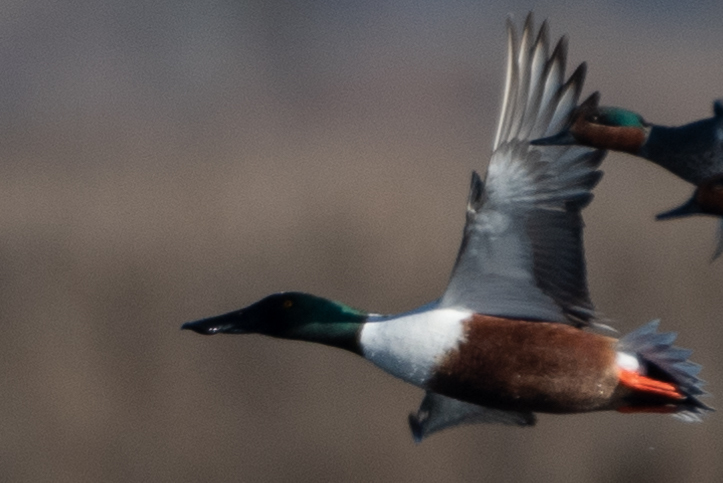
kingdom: Animalia
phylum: Chordata
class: Aves
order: Anseriformes
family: Anatidae
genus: Spatula
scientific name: Spatula clypeata
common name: Northern shoveler
